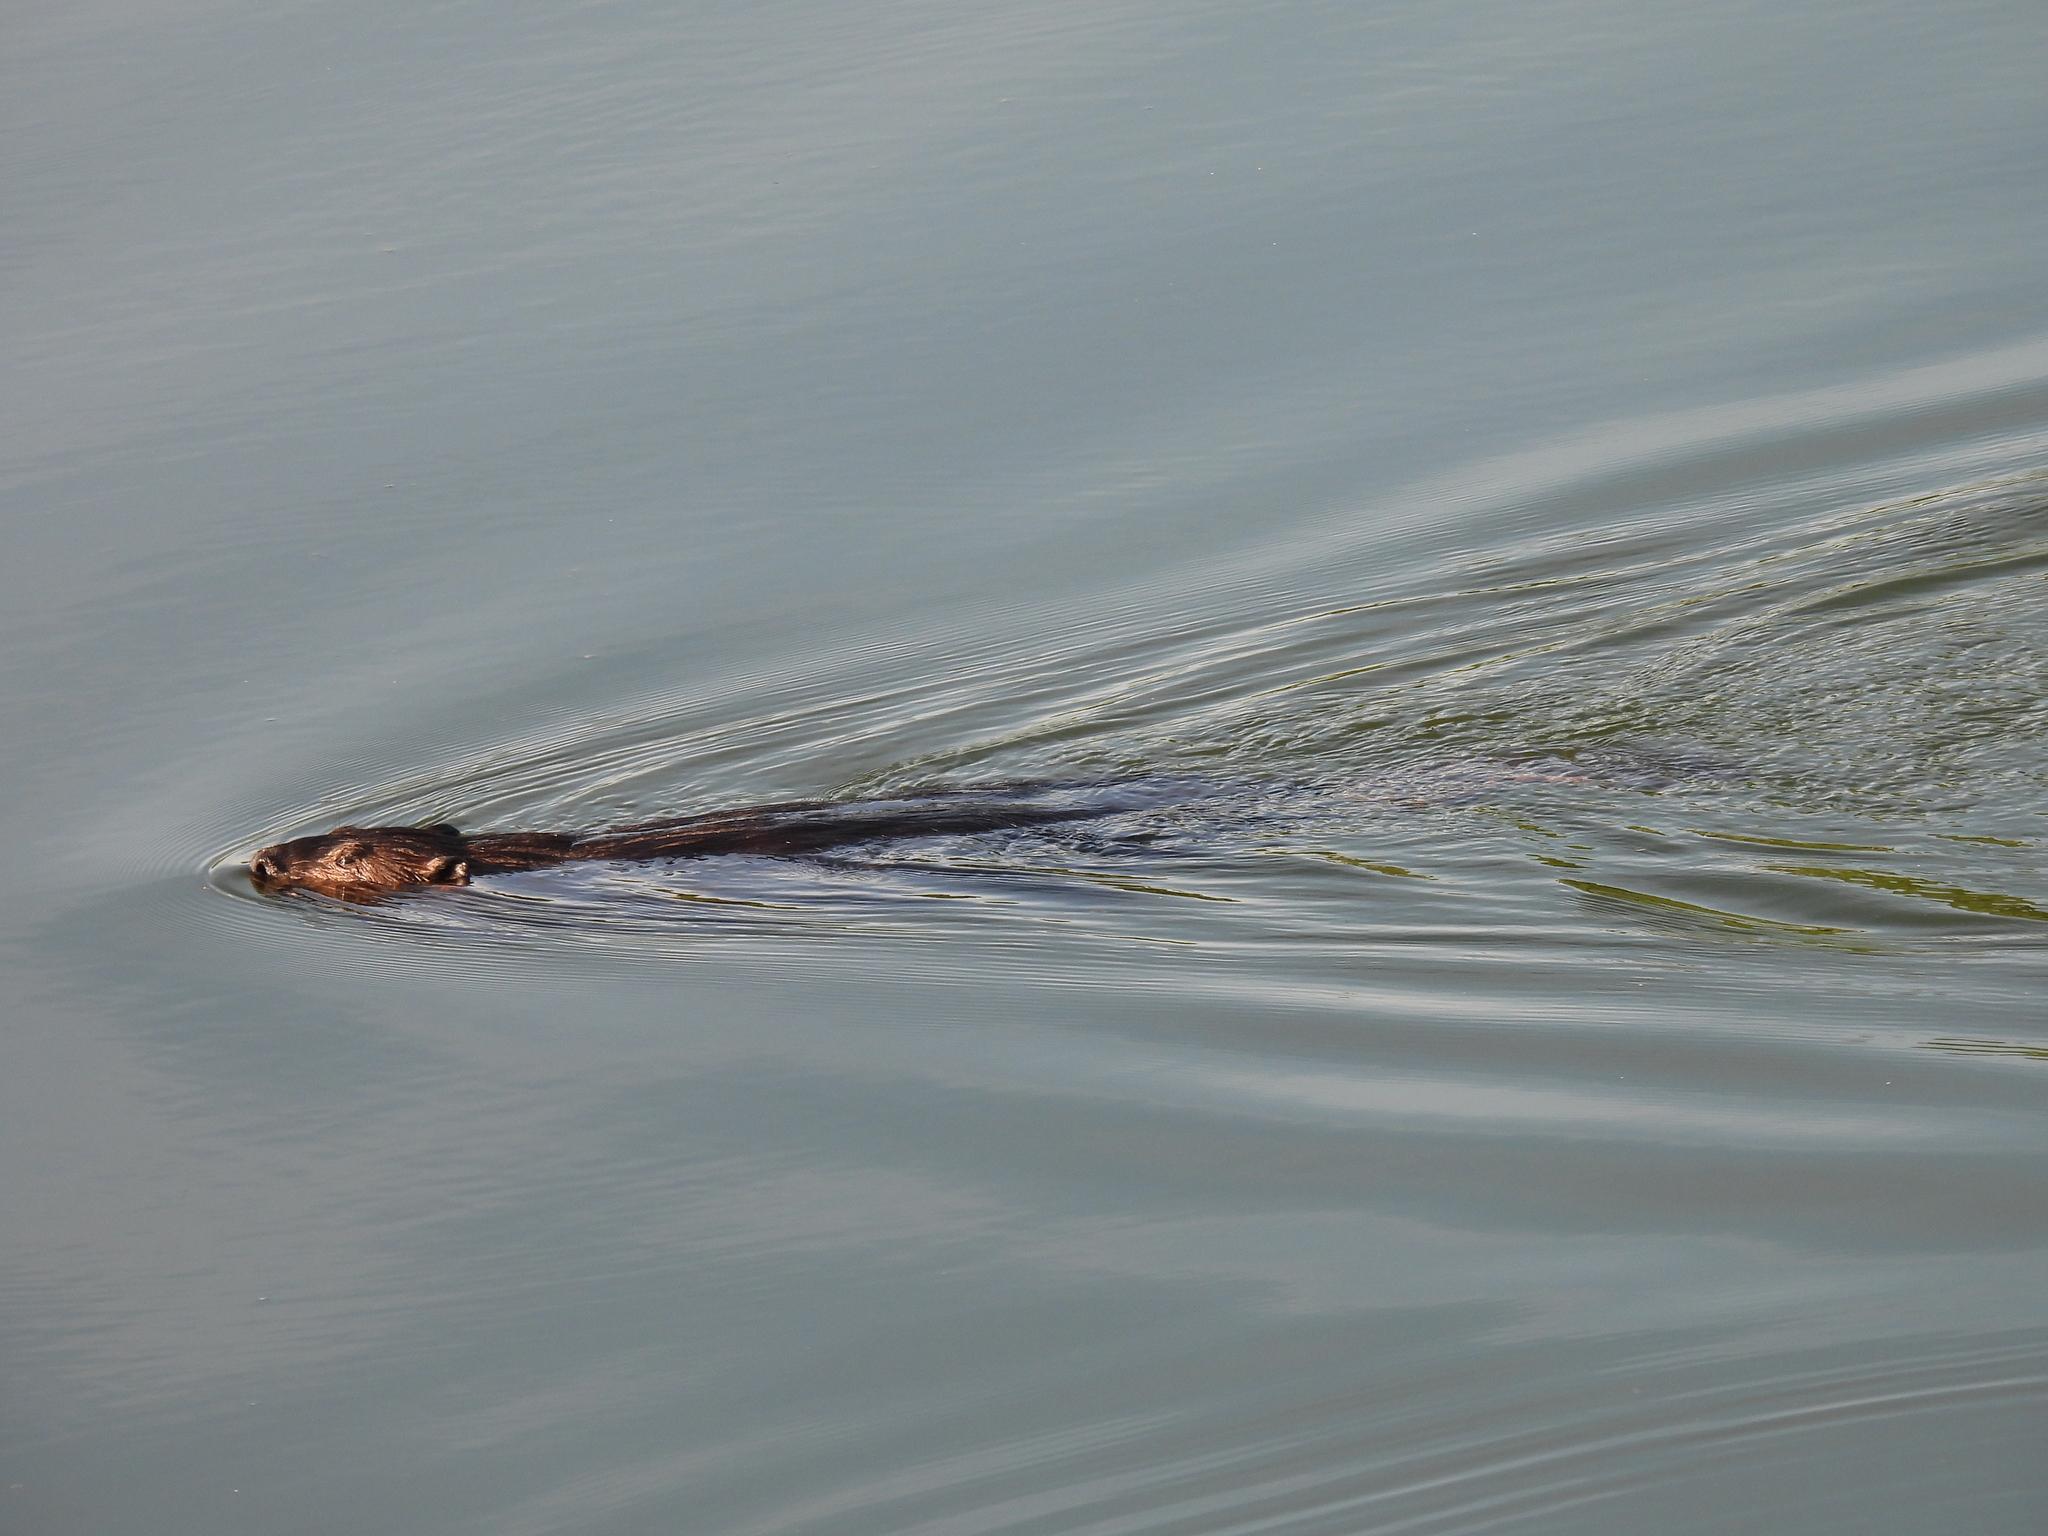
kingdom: Animalia
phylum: Chordata
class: Mammalia
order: Rodentia
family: Castoridae
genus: Castor
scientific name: Castor canadensis
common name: American beaver
